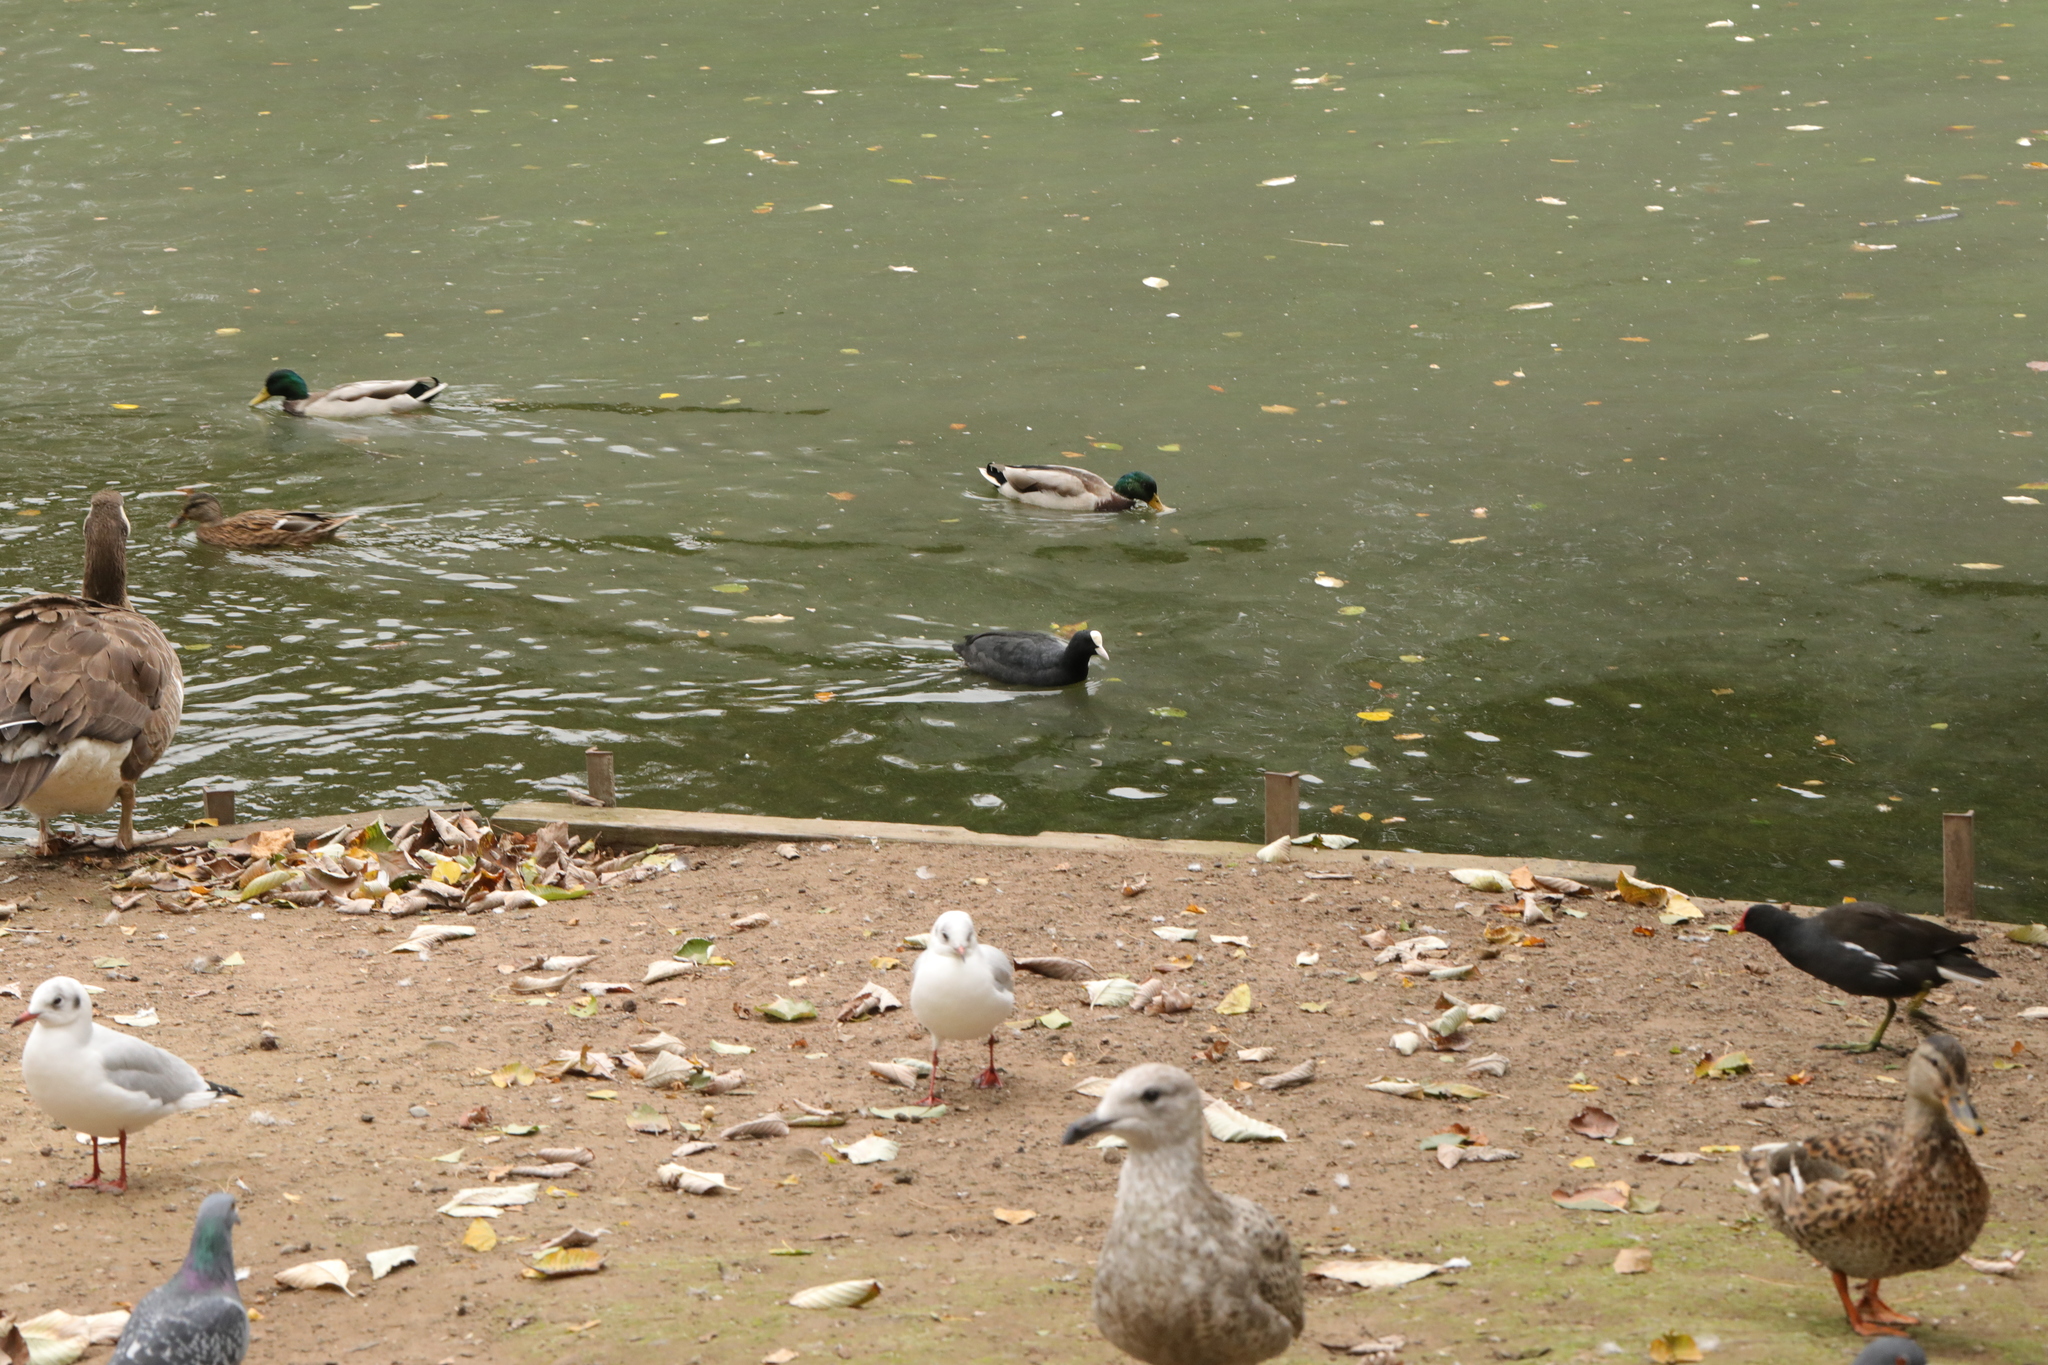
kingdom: Animalia
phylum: Chordata
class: Aves
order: Gruiformes
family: Rallidae
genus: Fulica
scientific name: Fulica atra
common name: Eurasian coot
